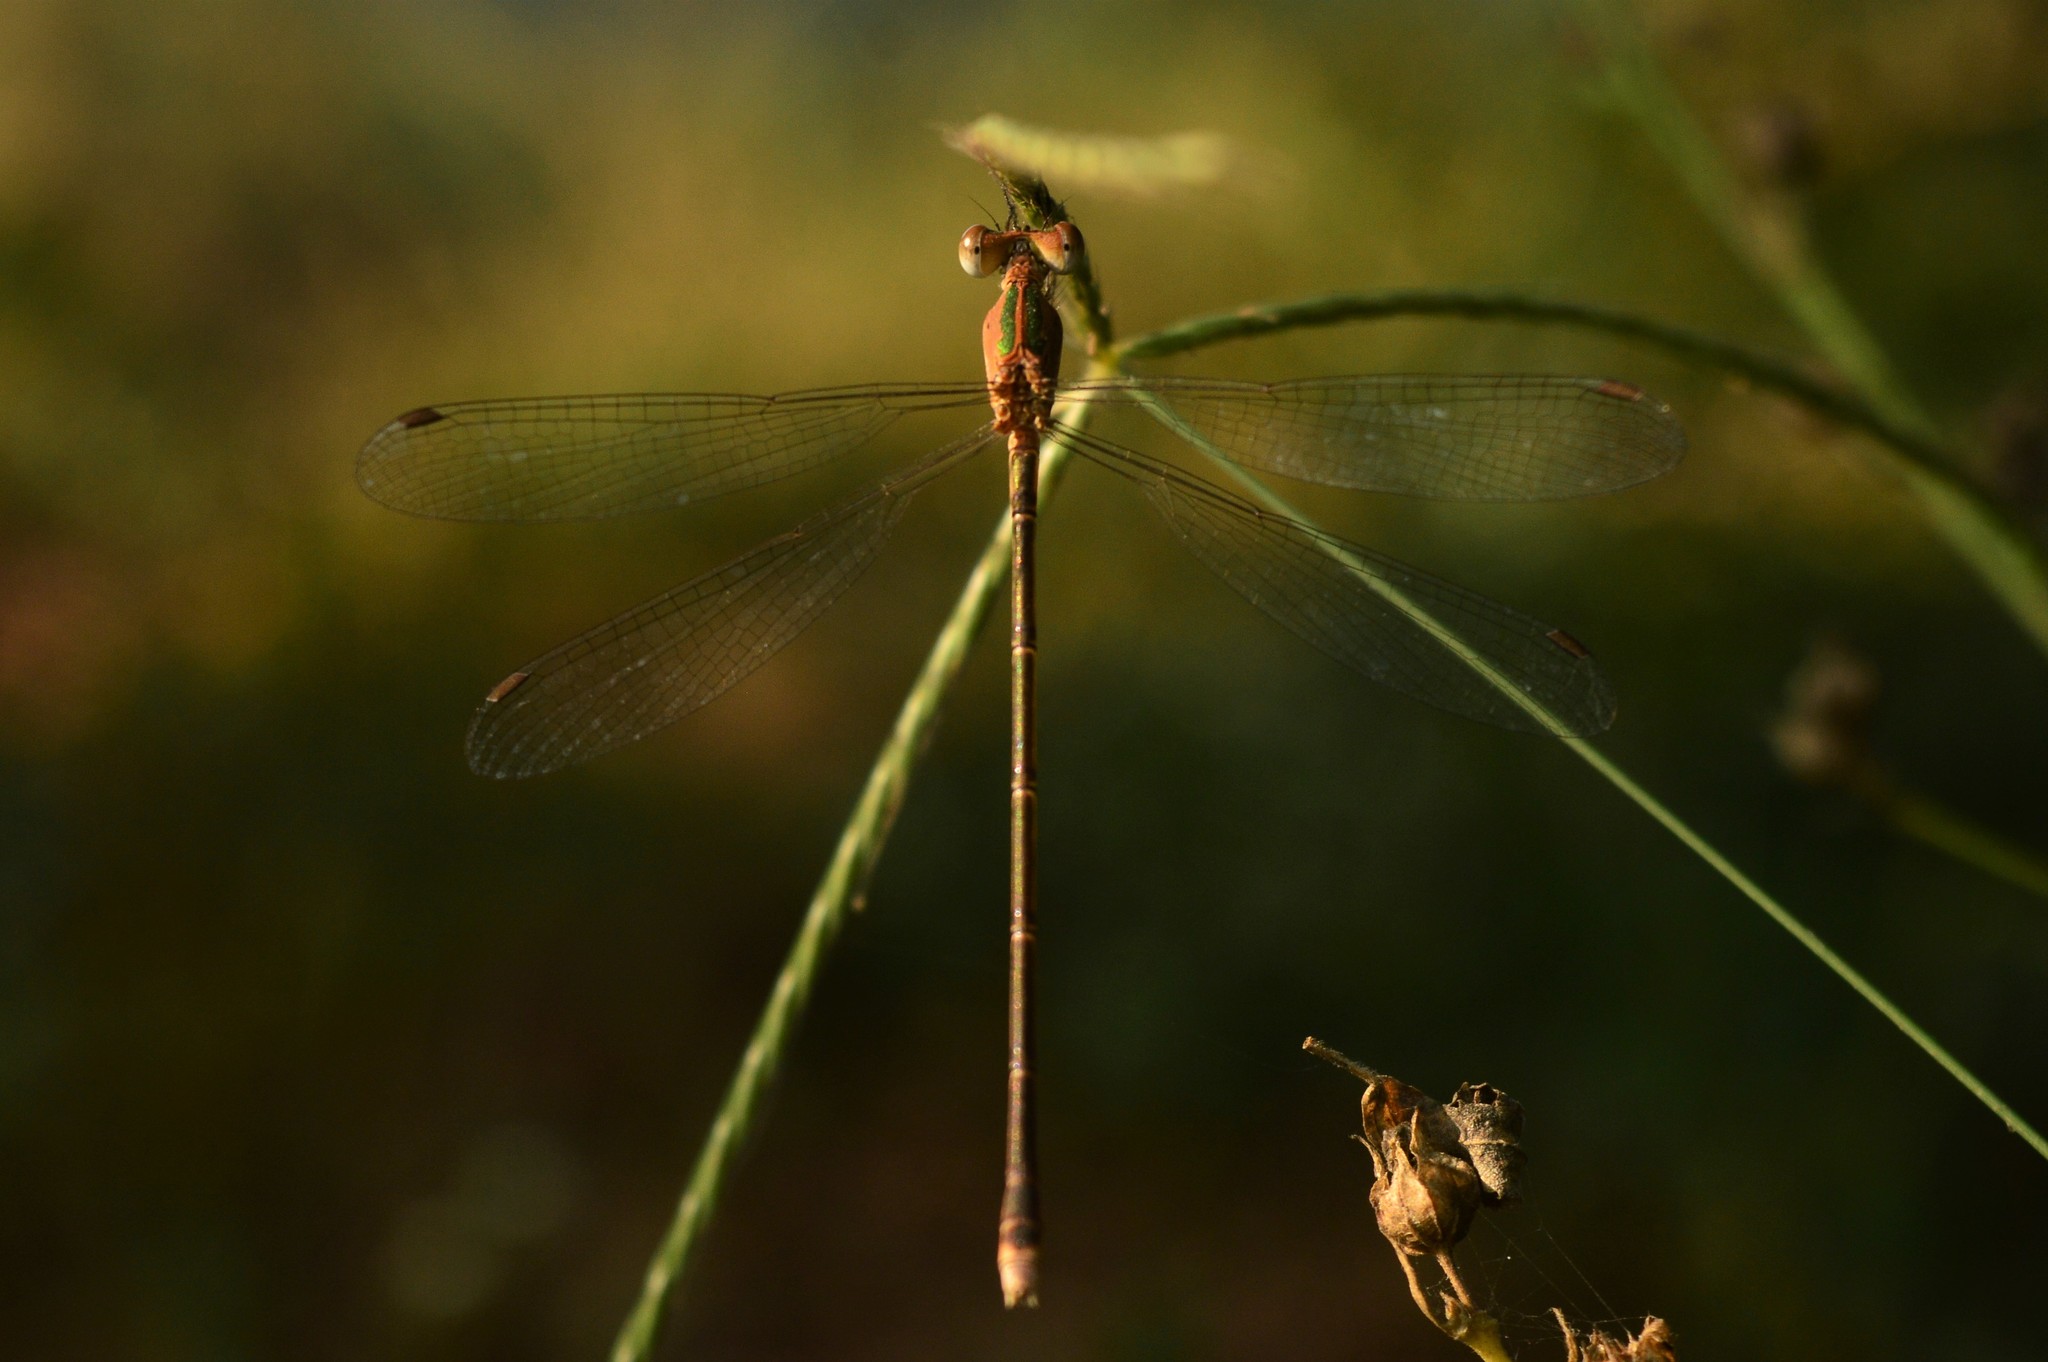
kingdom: Animalia
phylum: Arthropoda
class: Insecta
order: Odonata
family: Lestidae
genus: Lestes
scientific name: Lestes elatus
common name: Emerald spreadwing
